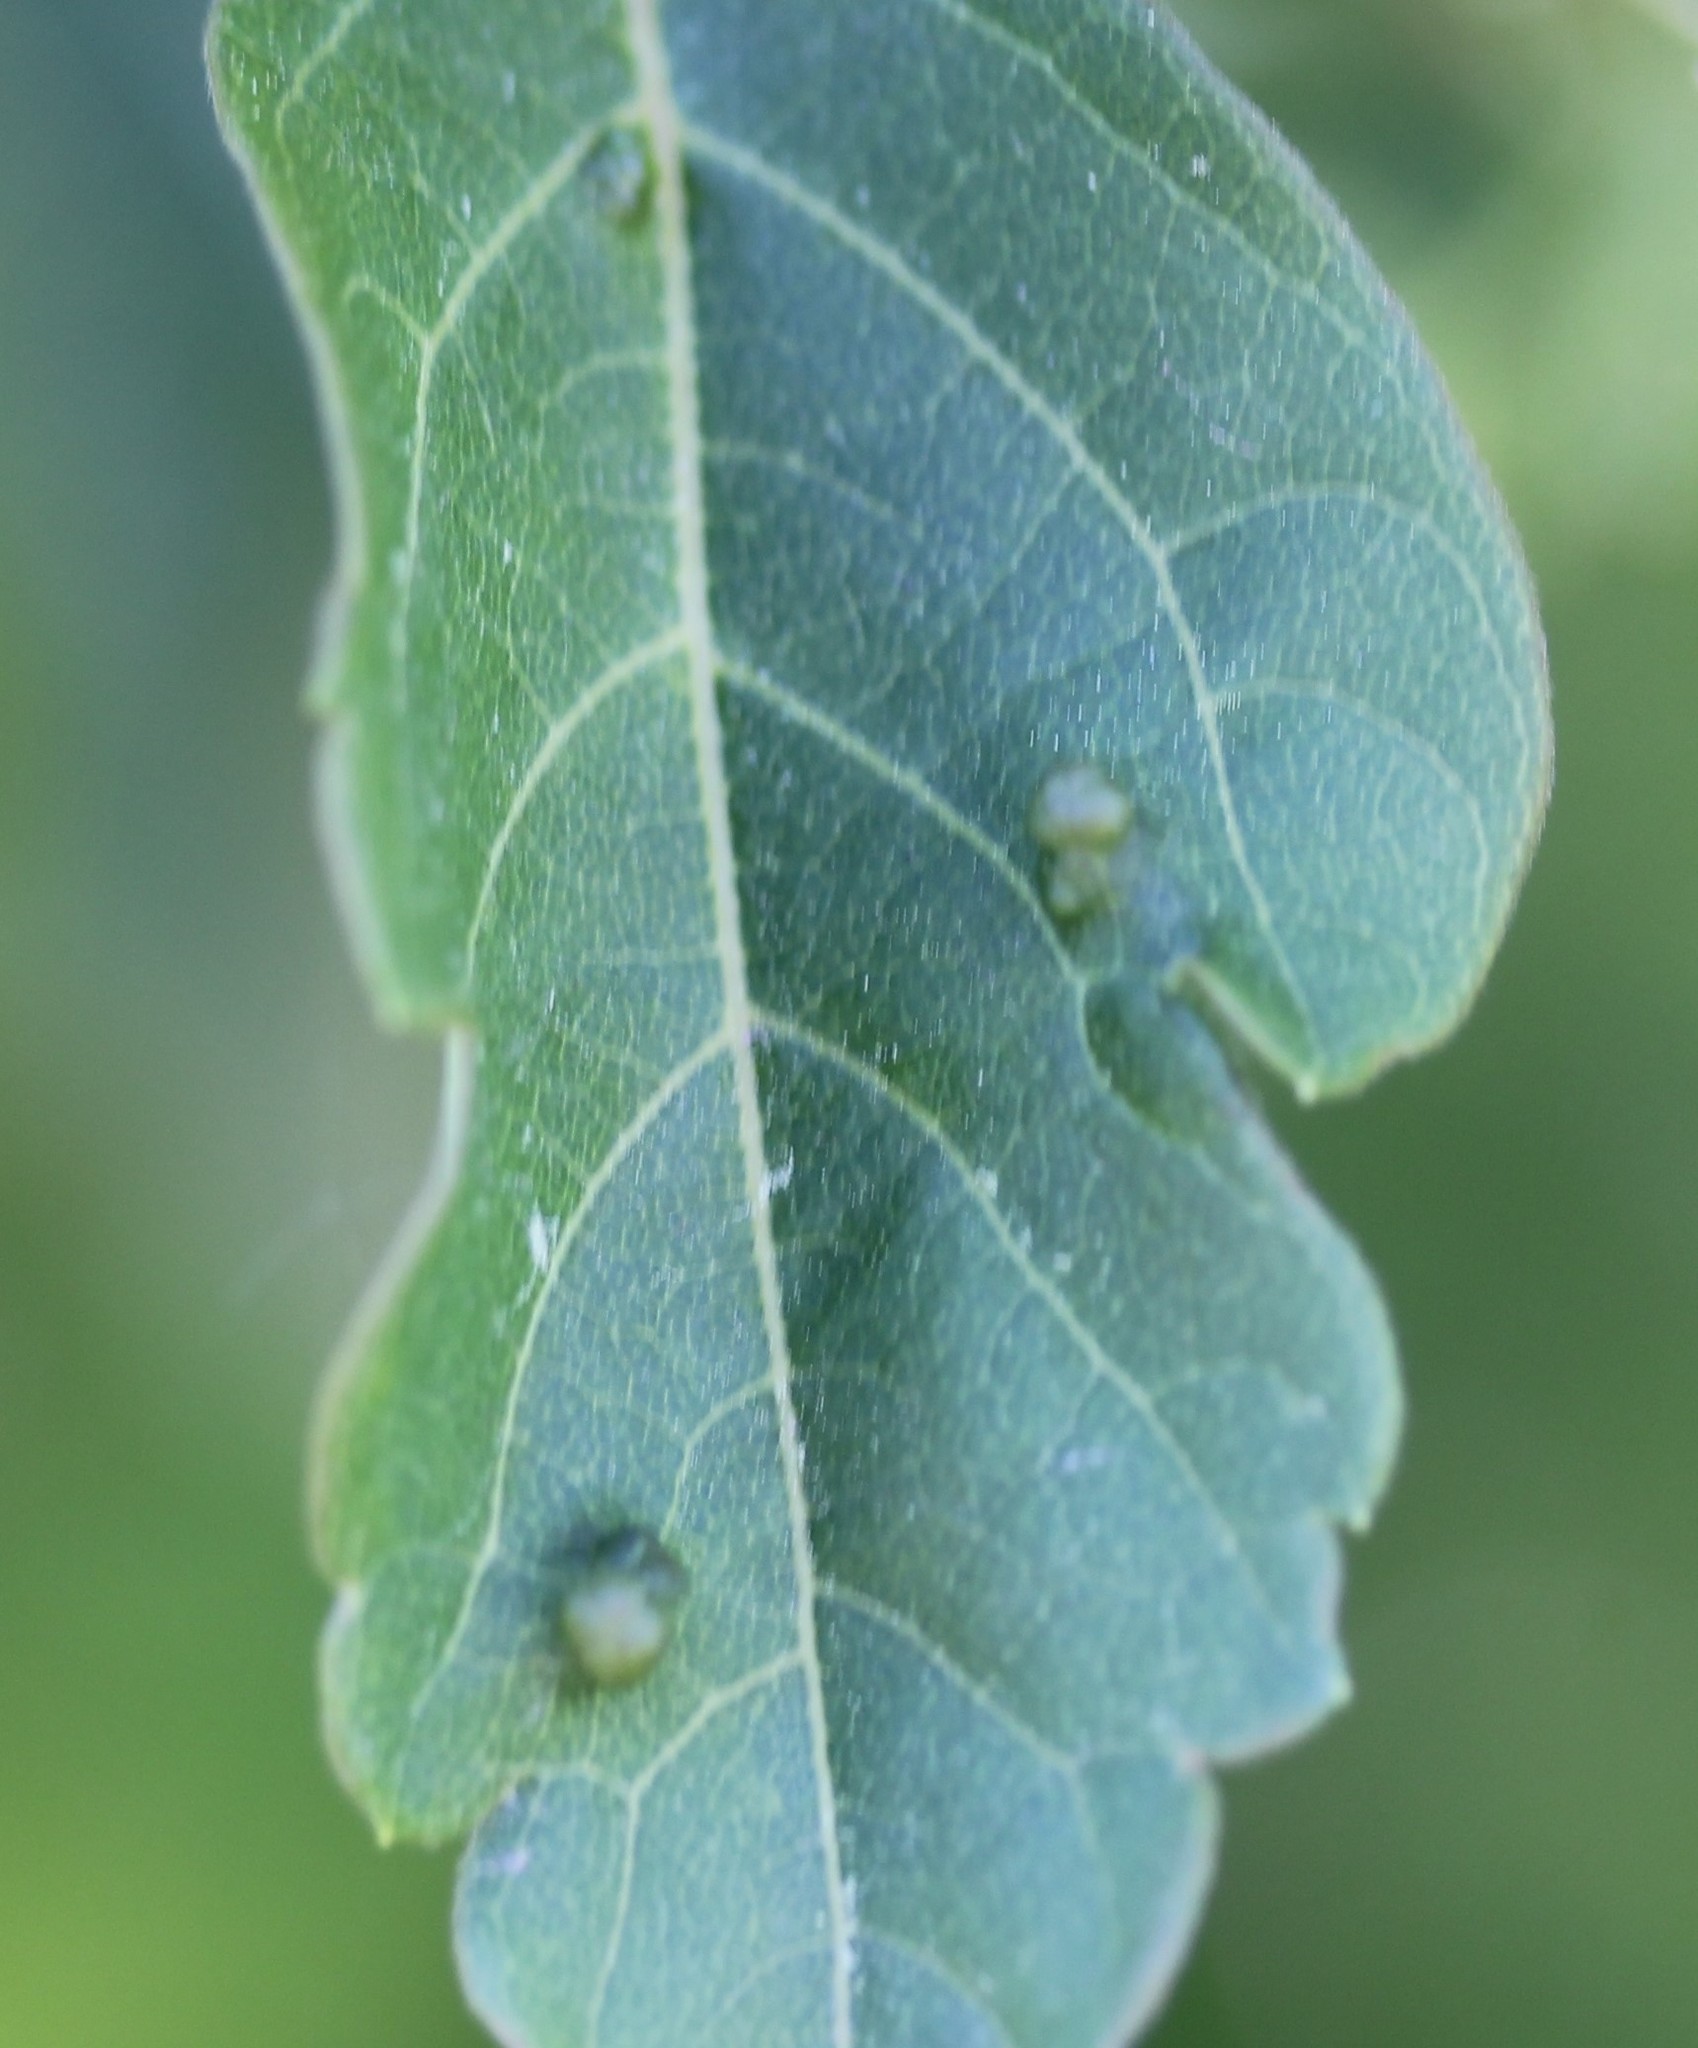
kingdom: Animalia
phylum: Arthropoda
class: Arachnida
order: Trombidiformes
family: Eriophyidae
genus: Aceria
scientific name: Aceria
